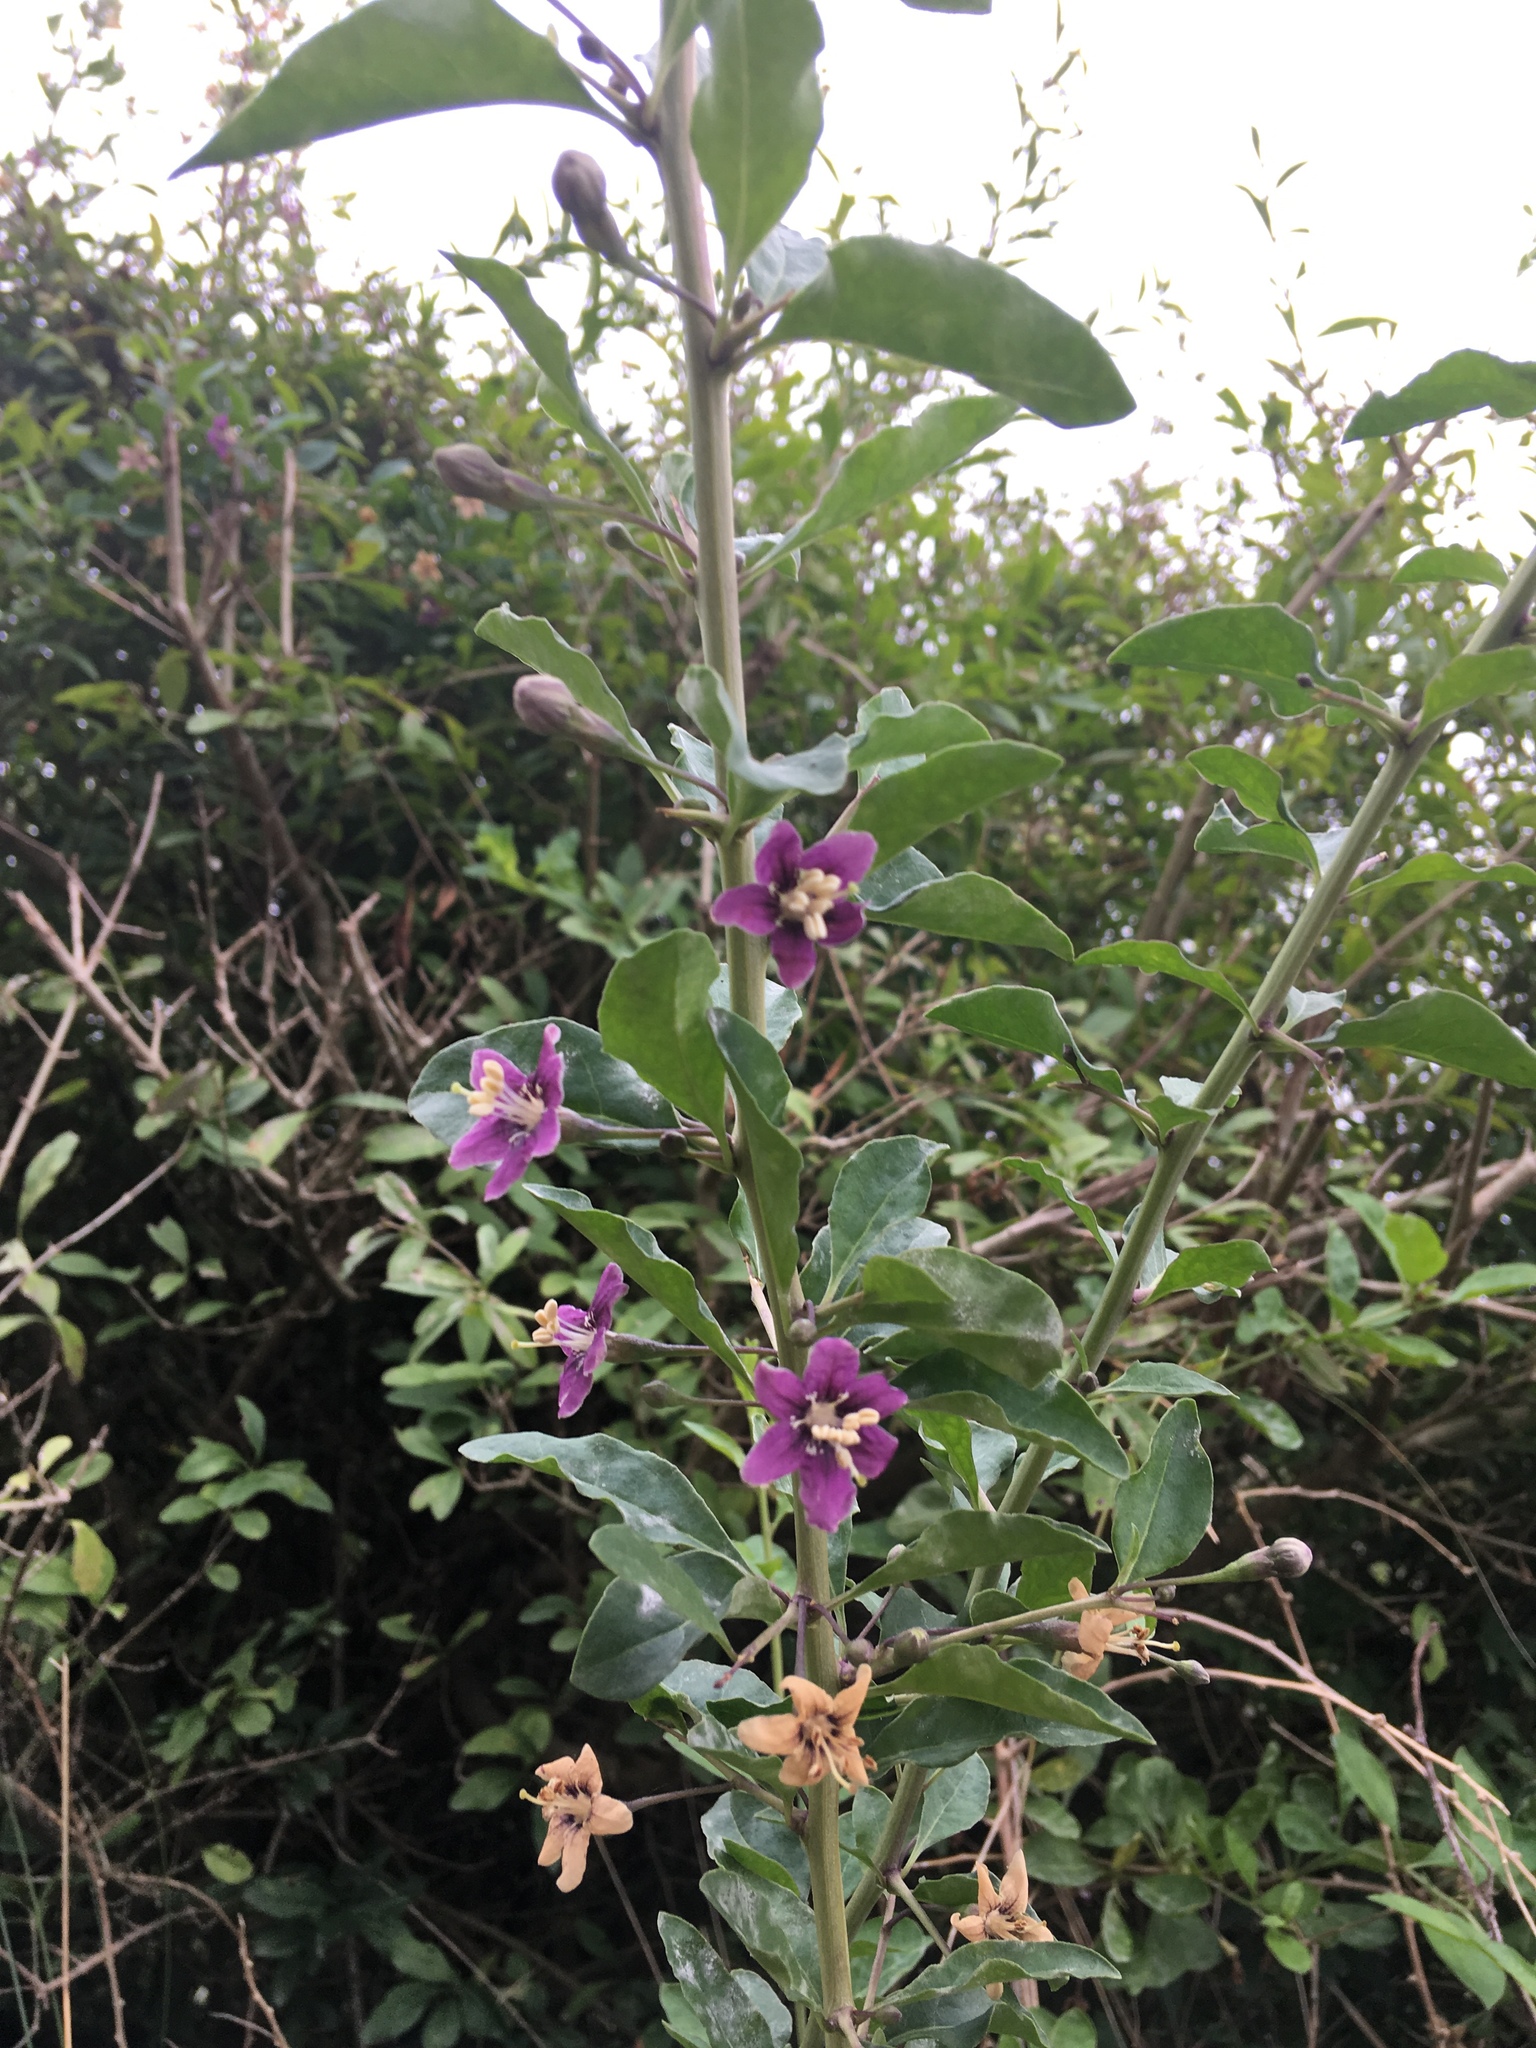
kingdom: Plantae
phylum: Tracheophyta
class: Magnoliopsida
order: Solanales
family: Solanaceae
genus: Lycium
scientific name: Lycium barbarum
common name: Duke of argyll's teaplant
